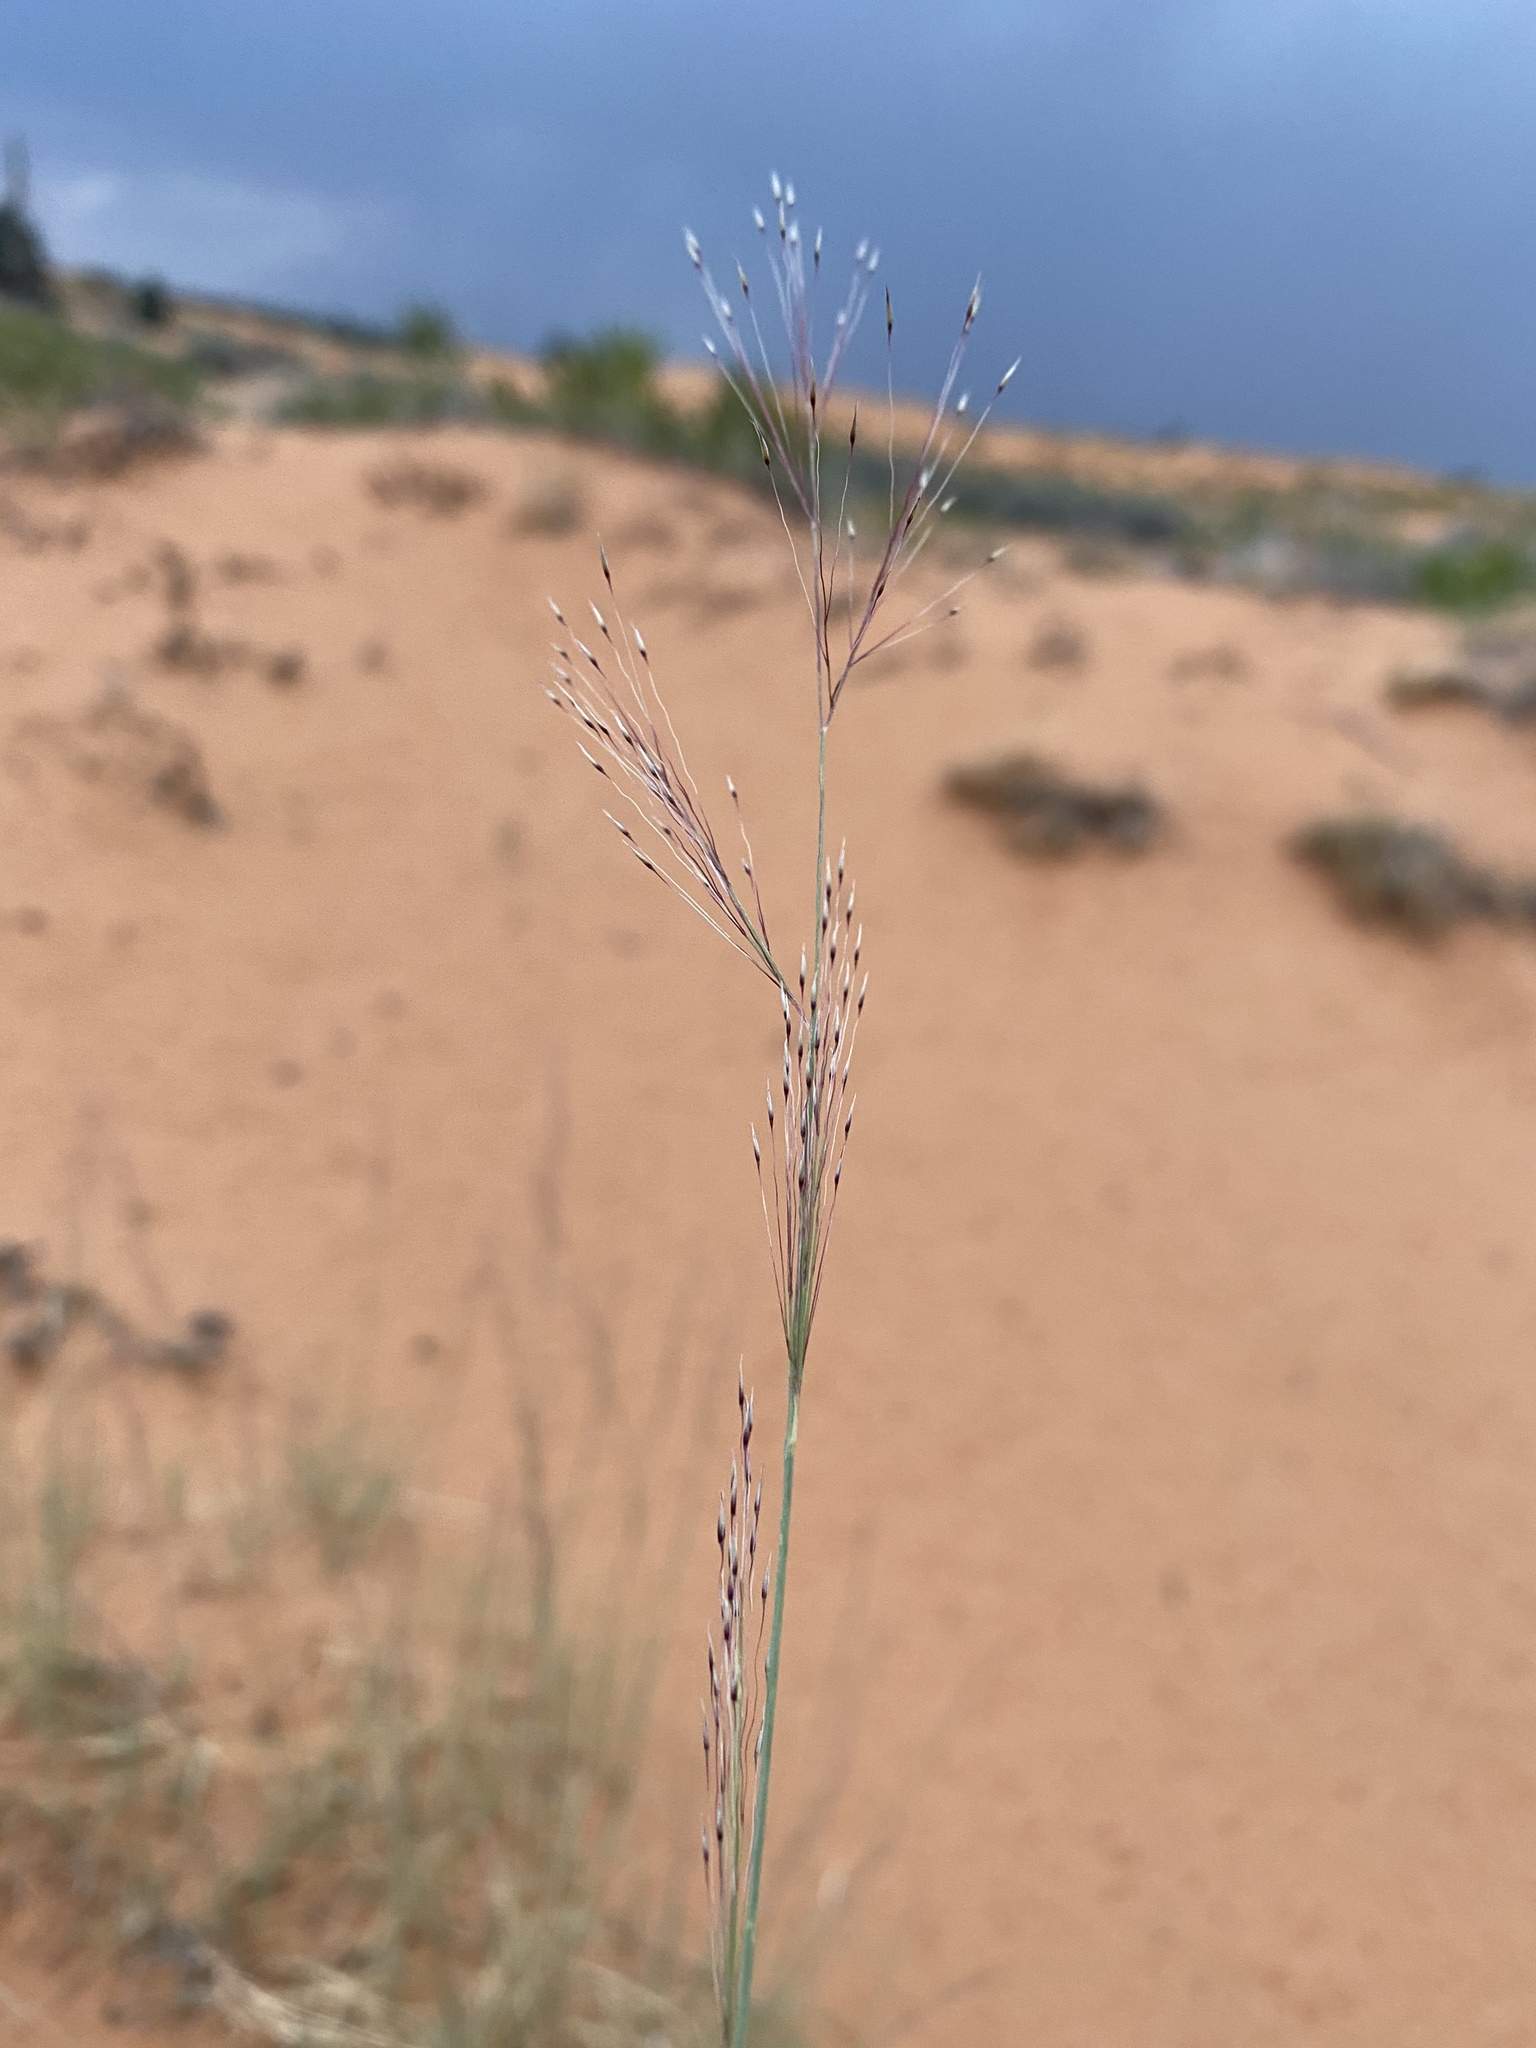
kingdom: Plantae
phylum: Tracheophyta
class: Liliopsida
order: Poales
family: Poaceae
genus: Muhlenbergia
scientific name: Muhlenbergia pungens
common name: Sandhill muhly
